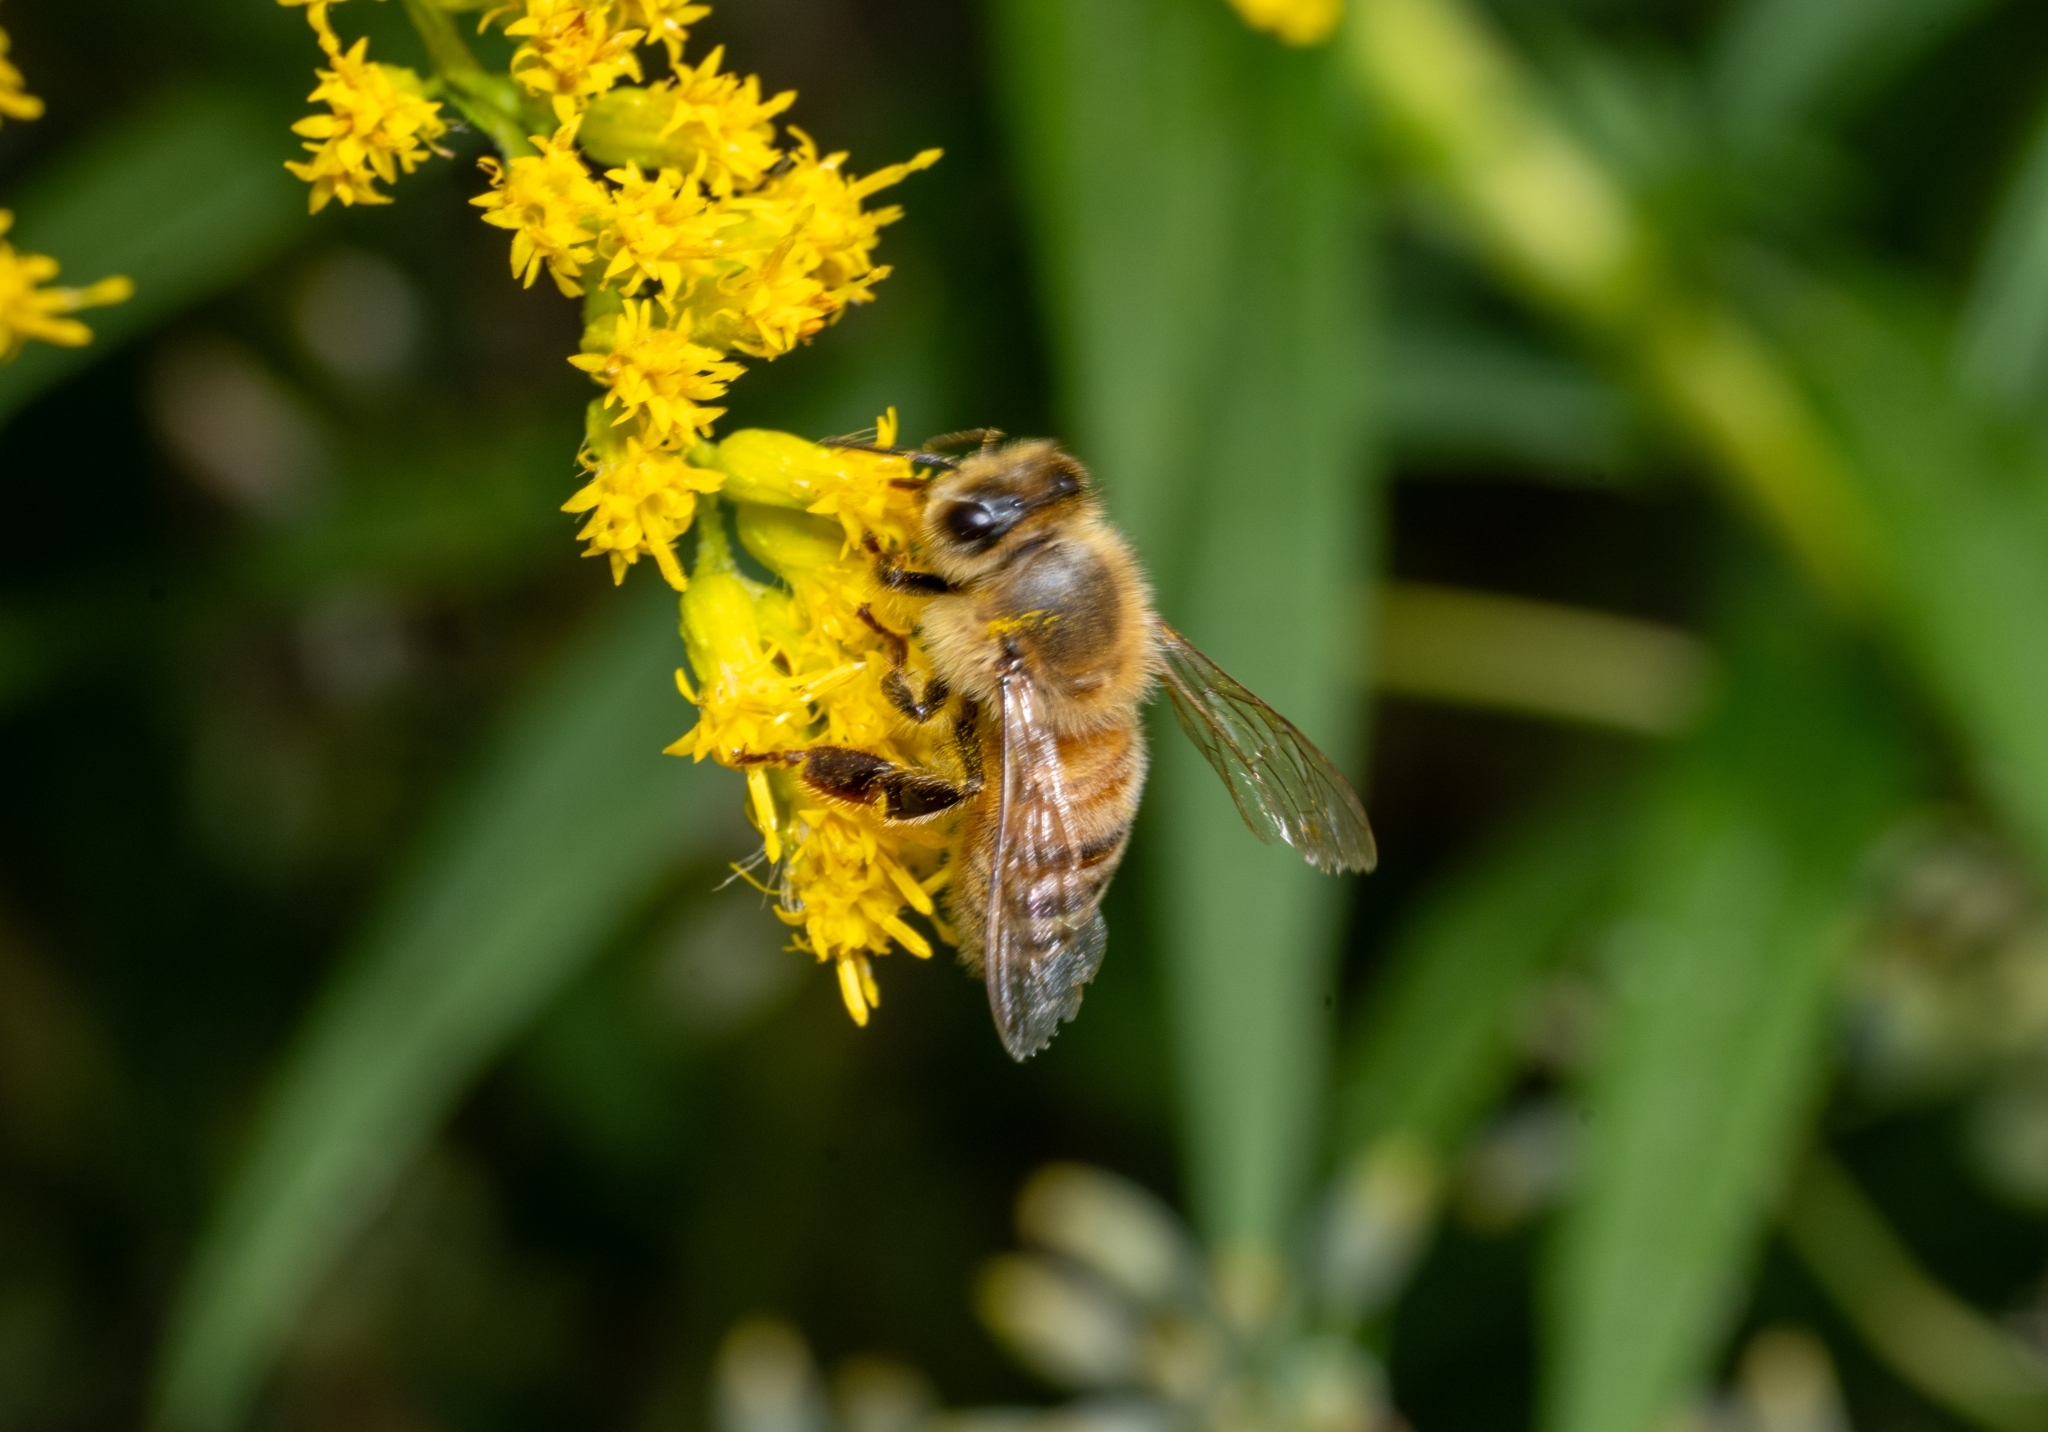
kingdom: Animalia
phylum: Arthropoda
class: Insecta
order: Hymenoptera
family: Apidae
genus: Apis
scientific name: Apis mellifera
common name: Honey bee
